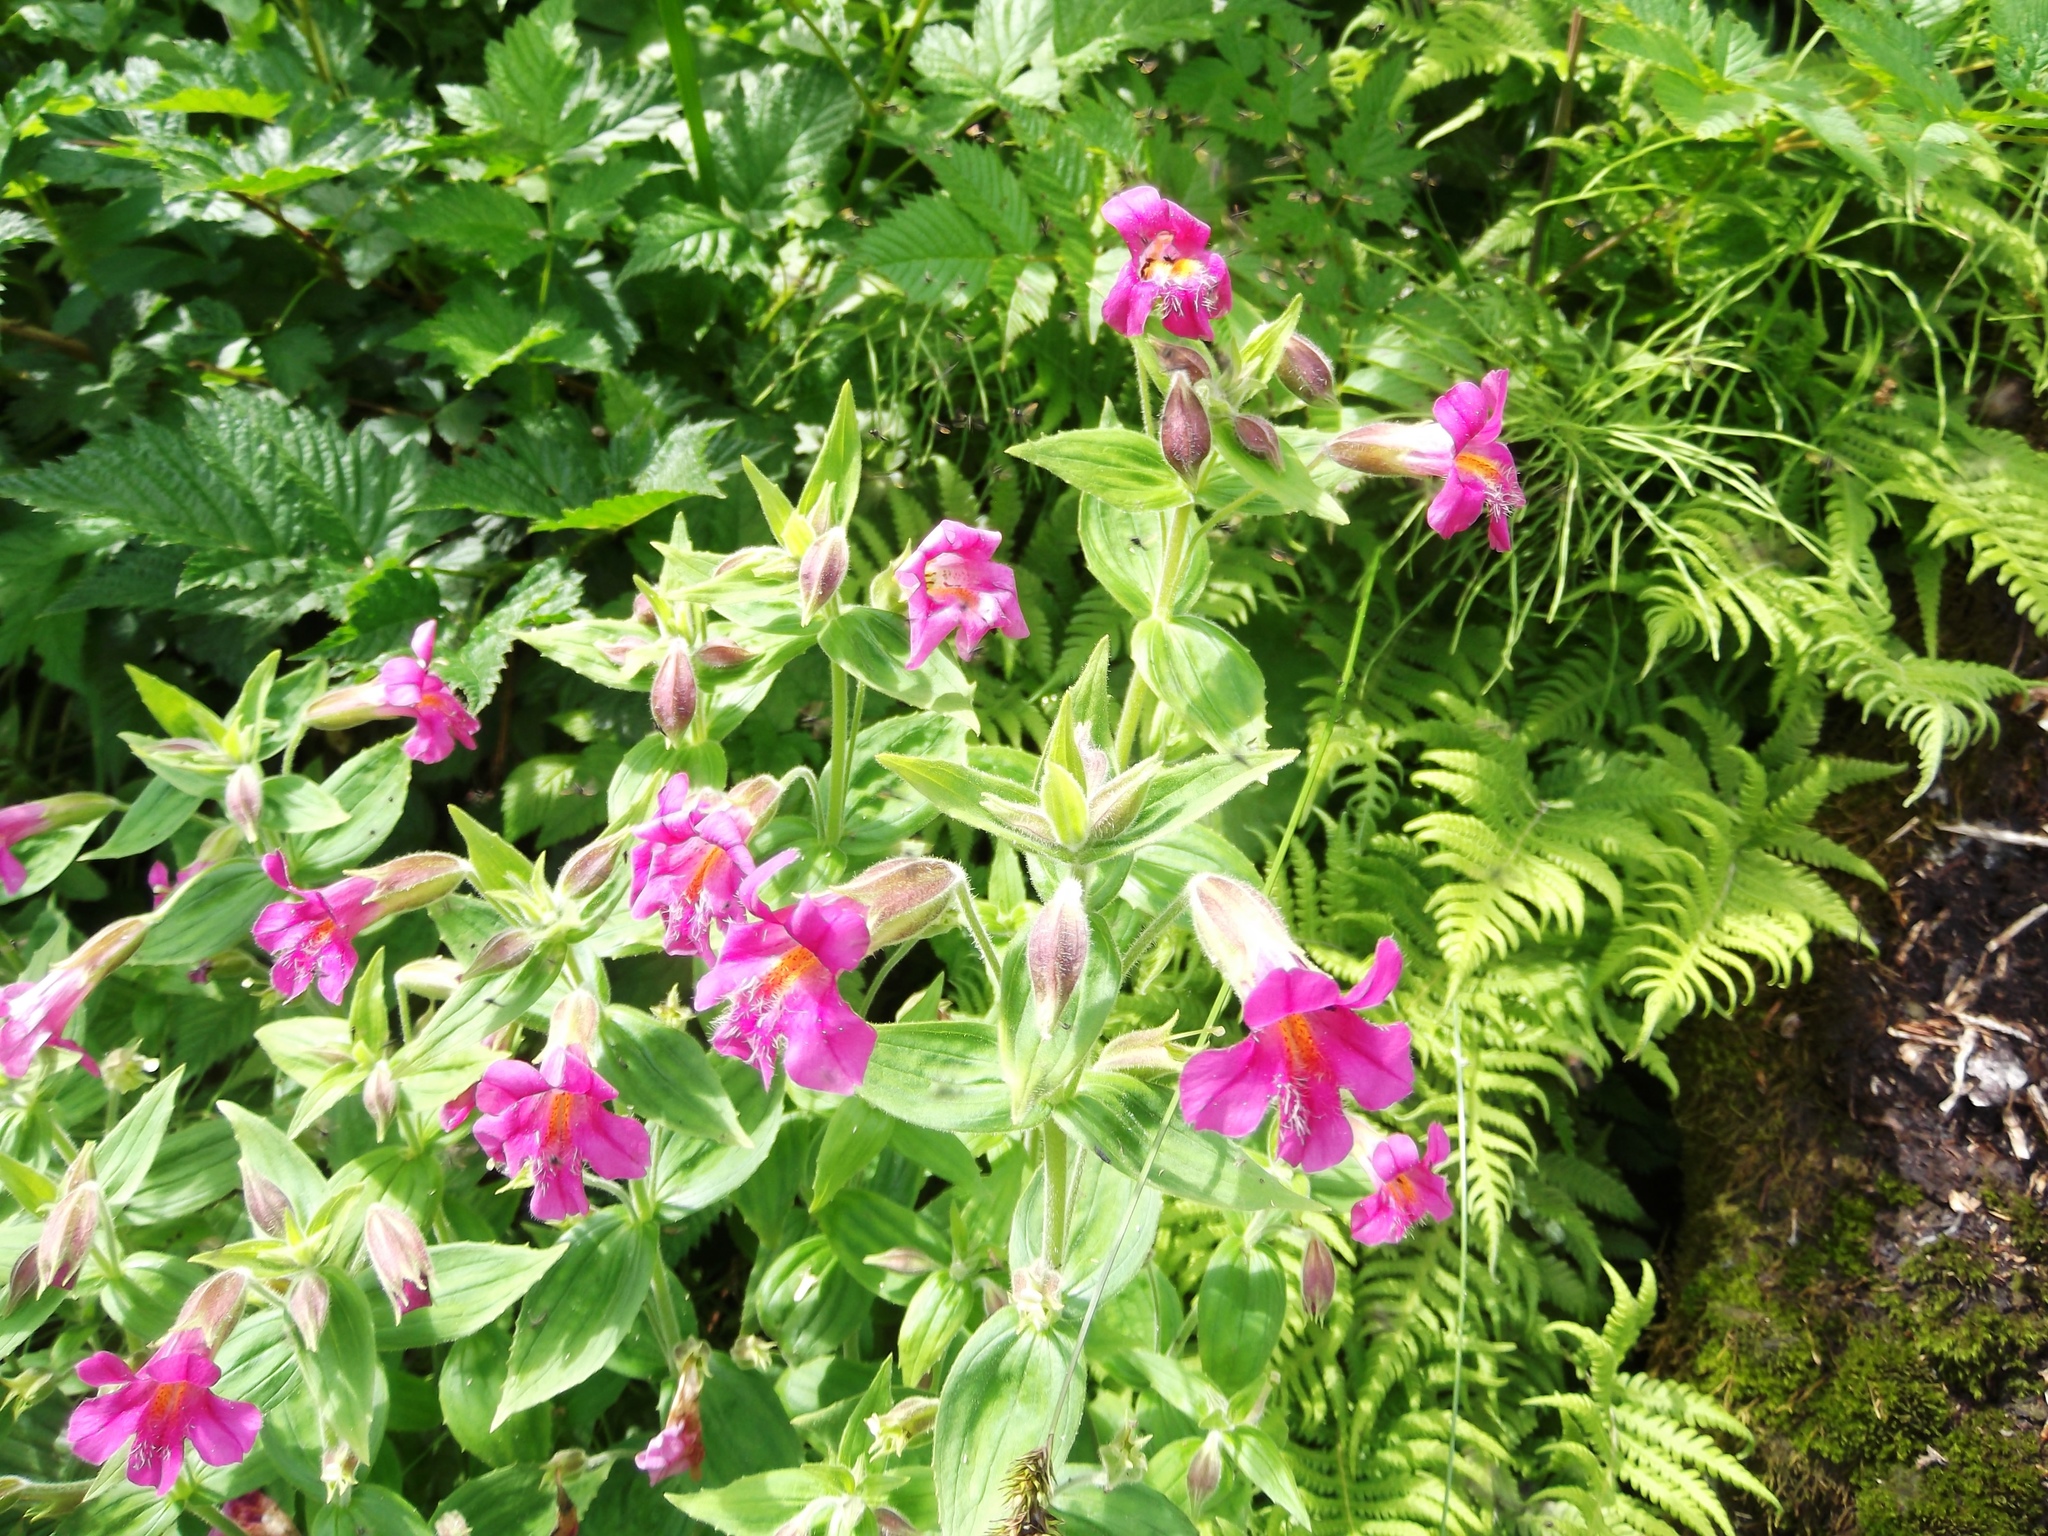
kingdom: Plantae
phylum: Tracheophyta
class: Magnoliopsida
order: Lamiales
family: Phrymaceae
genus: Erythranthe
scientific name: Erythranthe lewisii
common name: Lewis's monkey-flower
